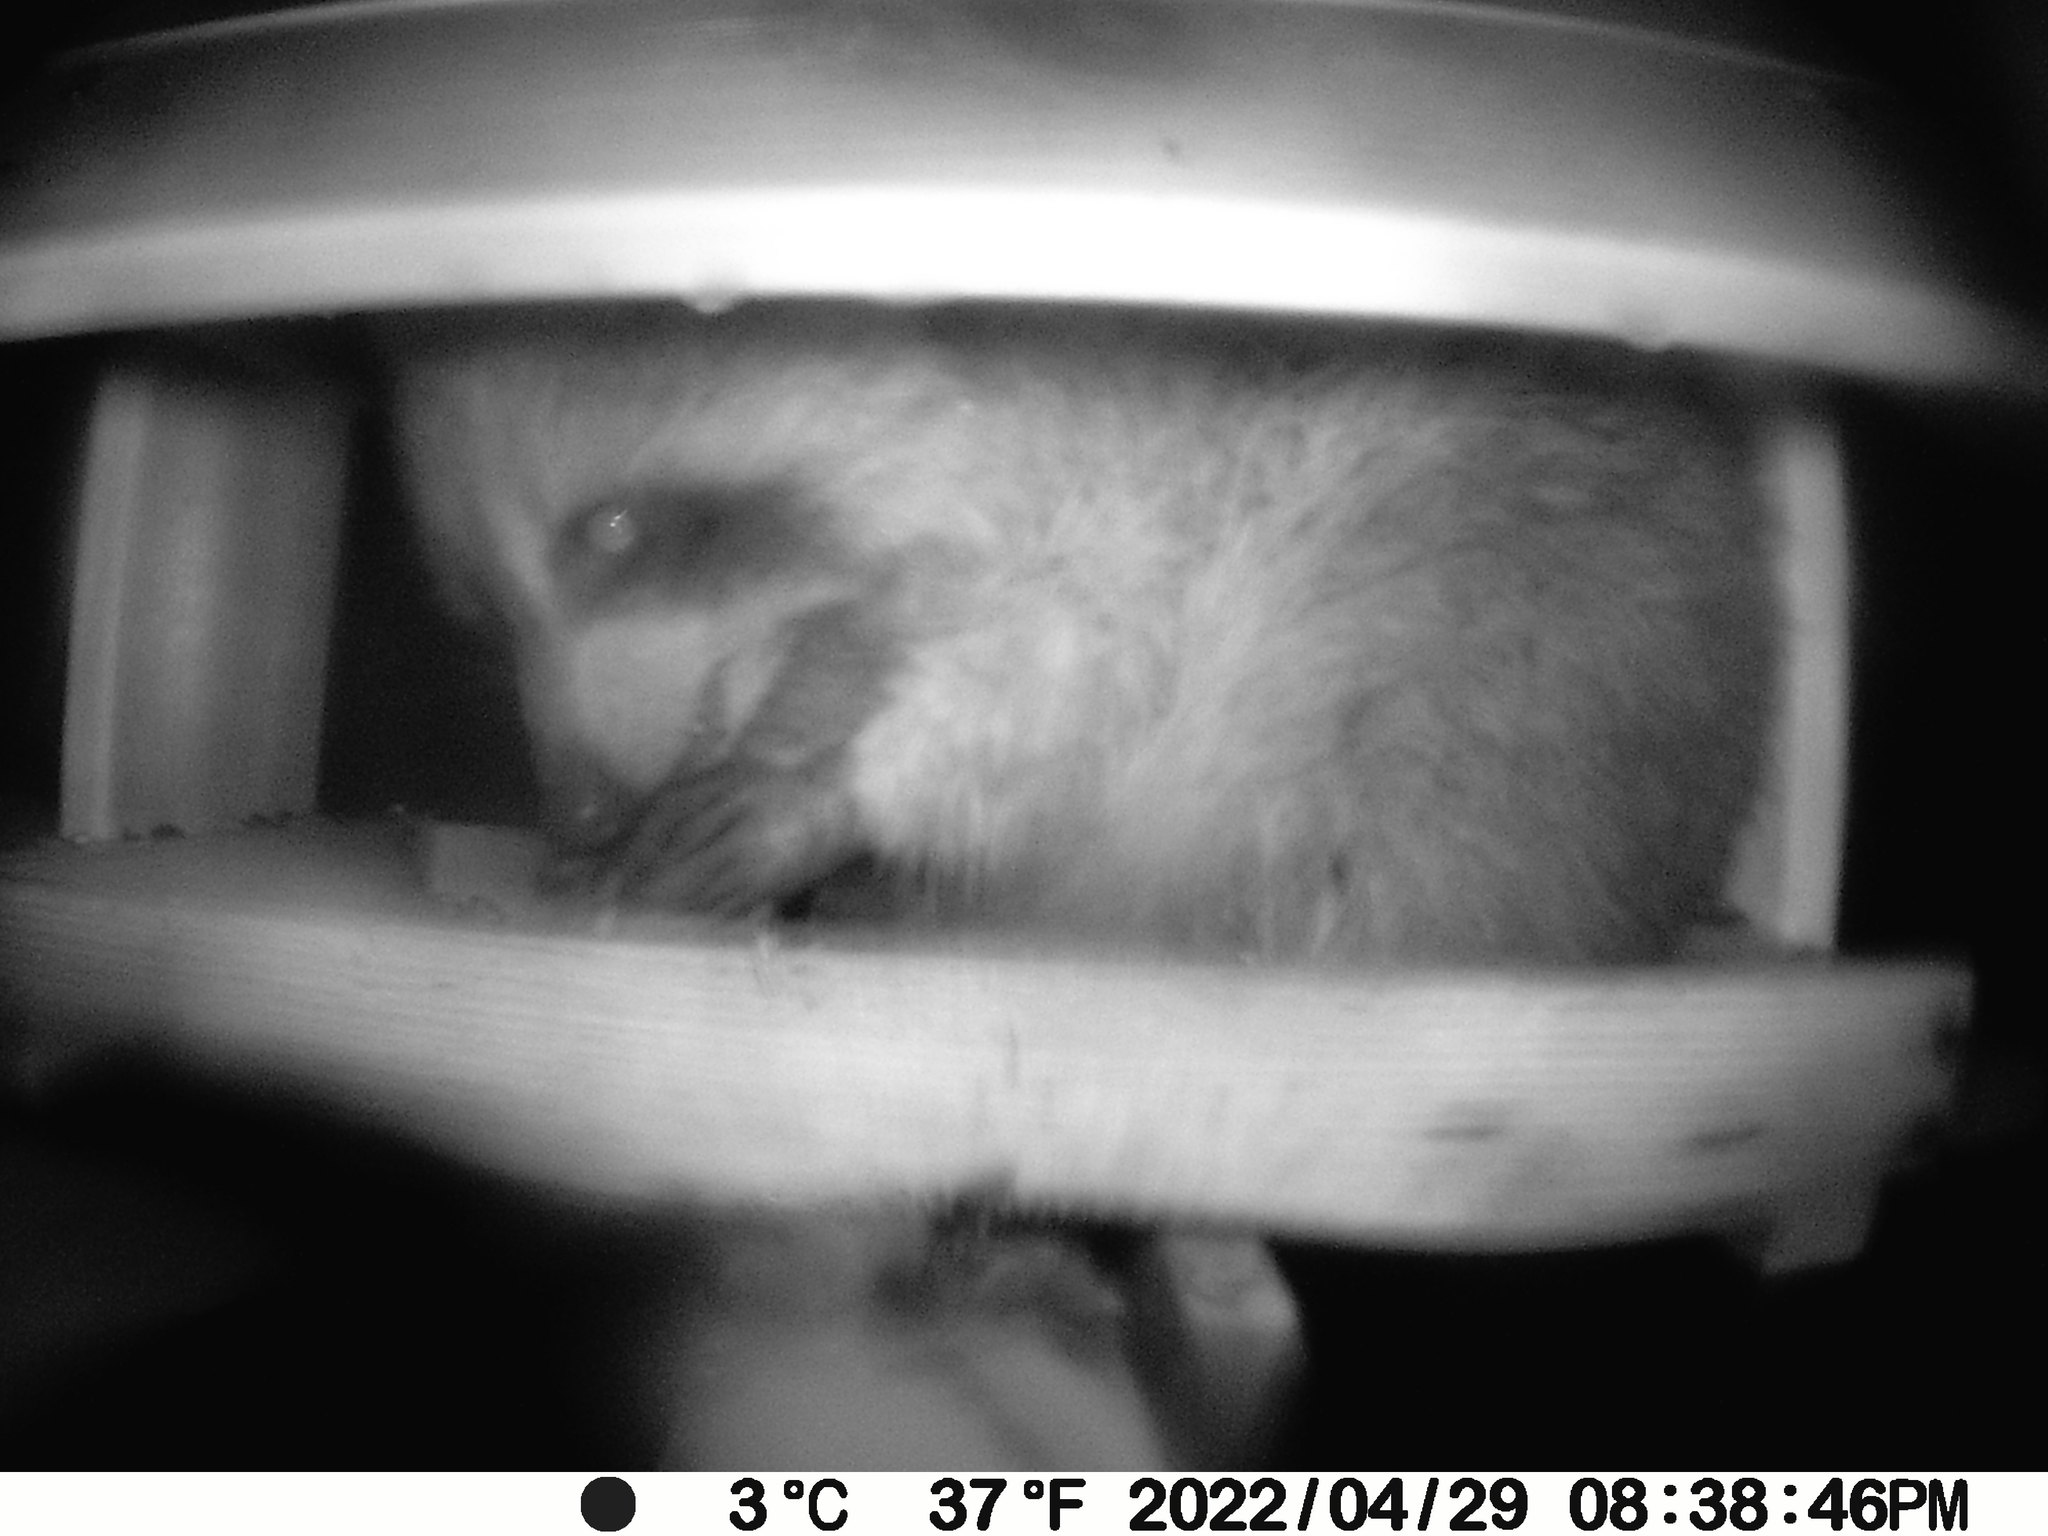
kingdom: Animalia
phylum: Chordata
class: Mammalia
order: Carnivora
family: Procyonidae
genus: Procyon
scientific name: Procyon lotor
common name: Raccoon
